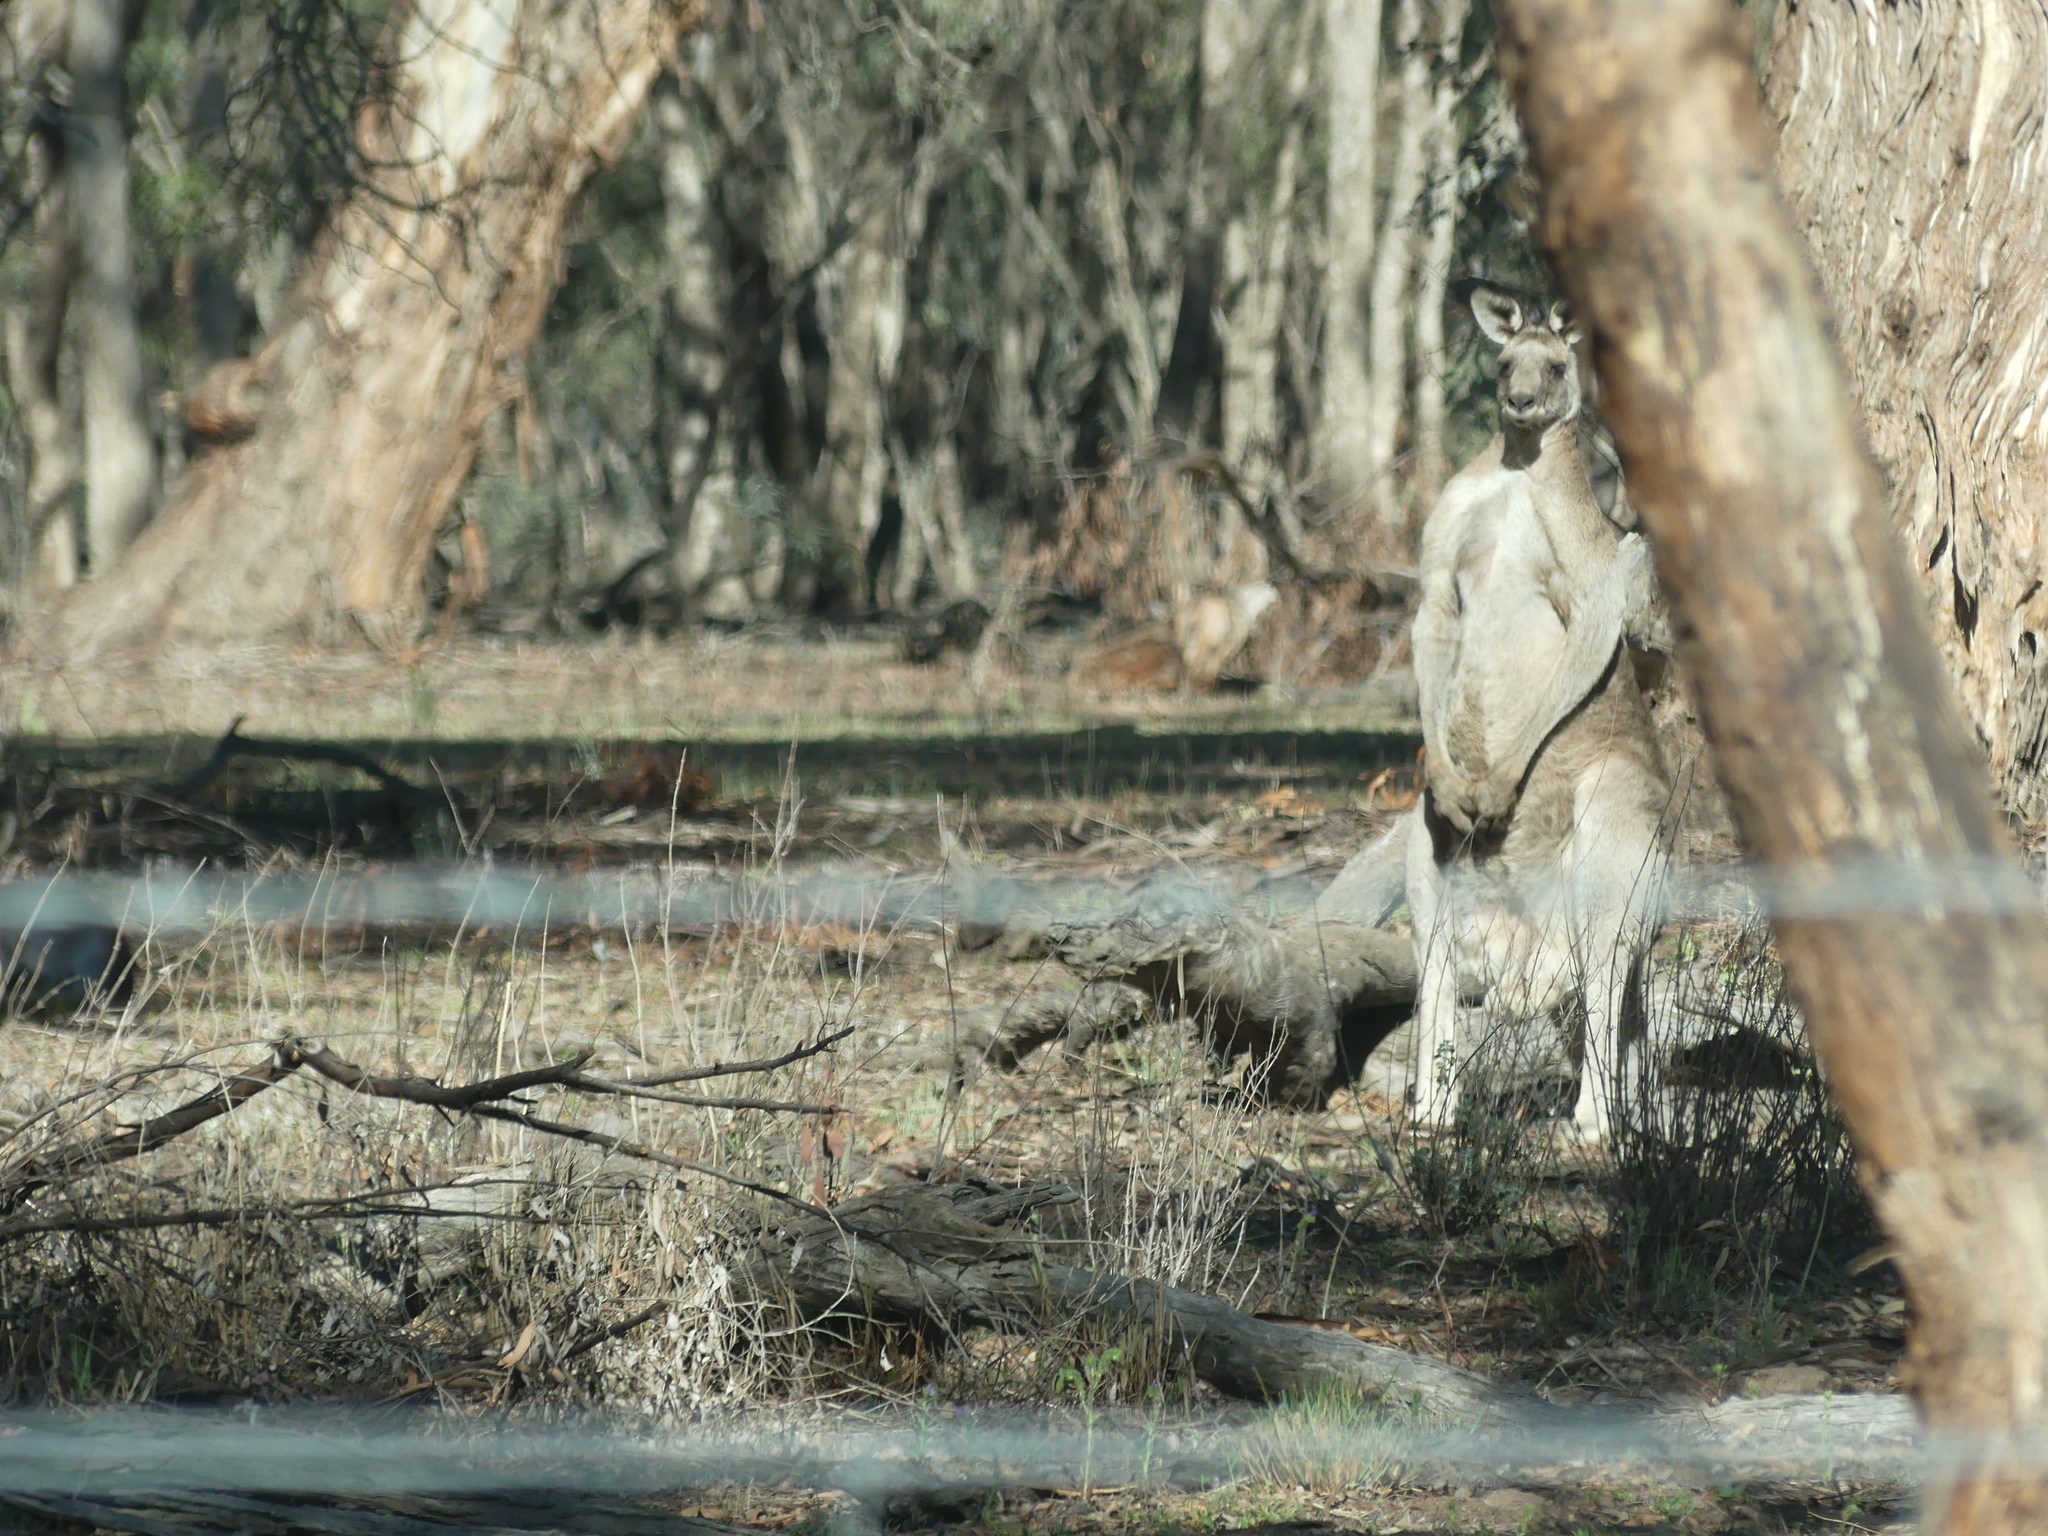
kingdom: Animalia
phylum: Chordata
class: Mammalia
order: Diprotodontia
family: Macropodidae
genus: Macropus
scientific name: Macropus giganteus
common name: Eastern grey kangaroo
